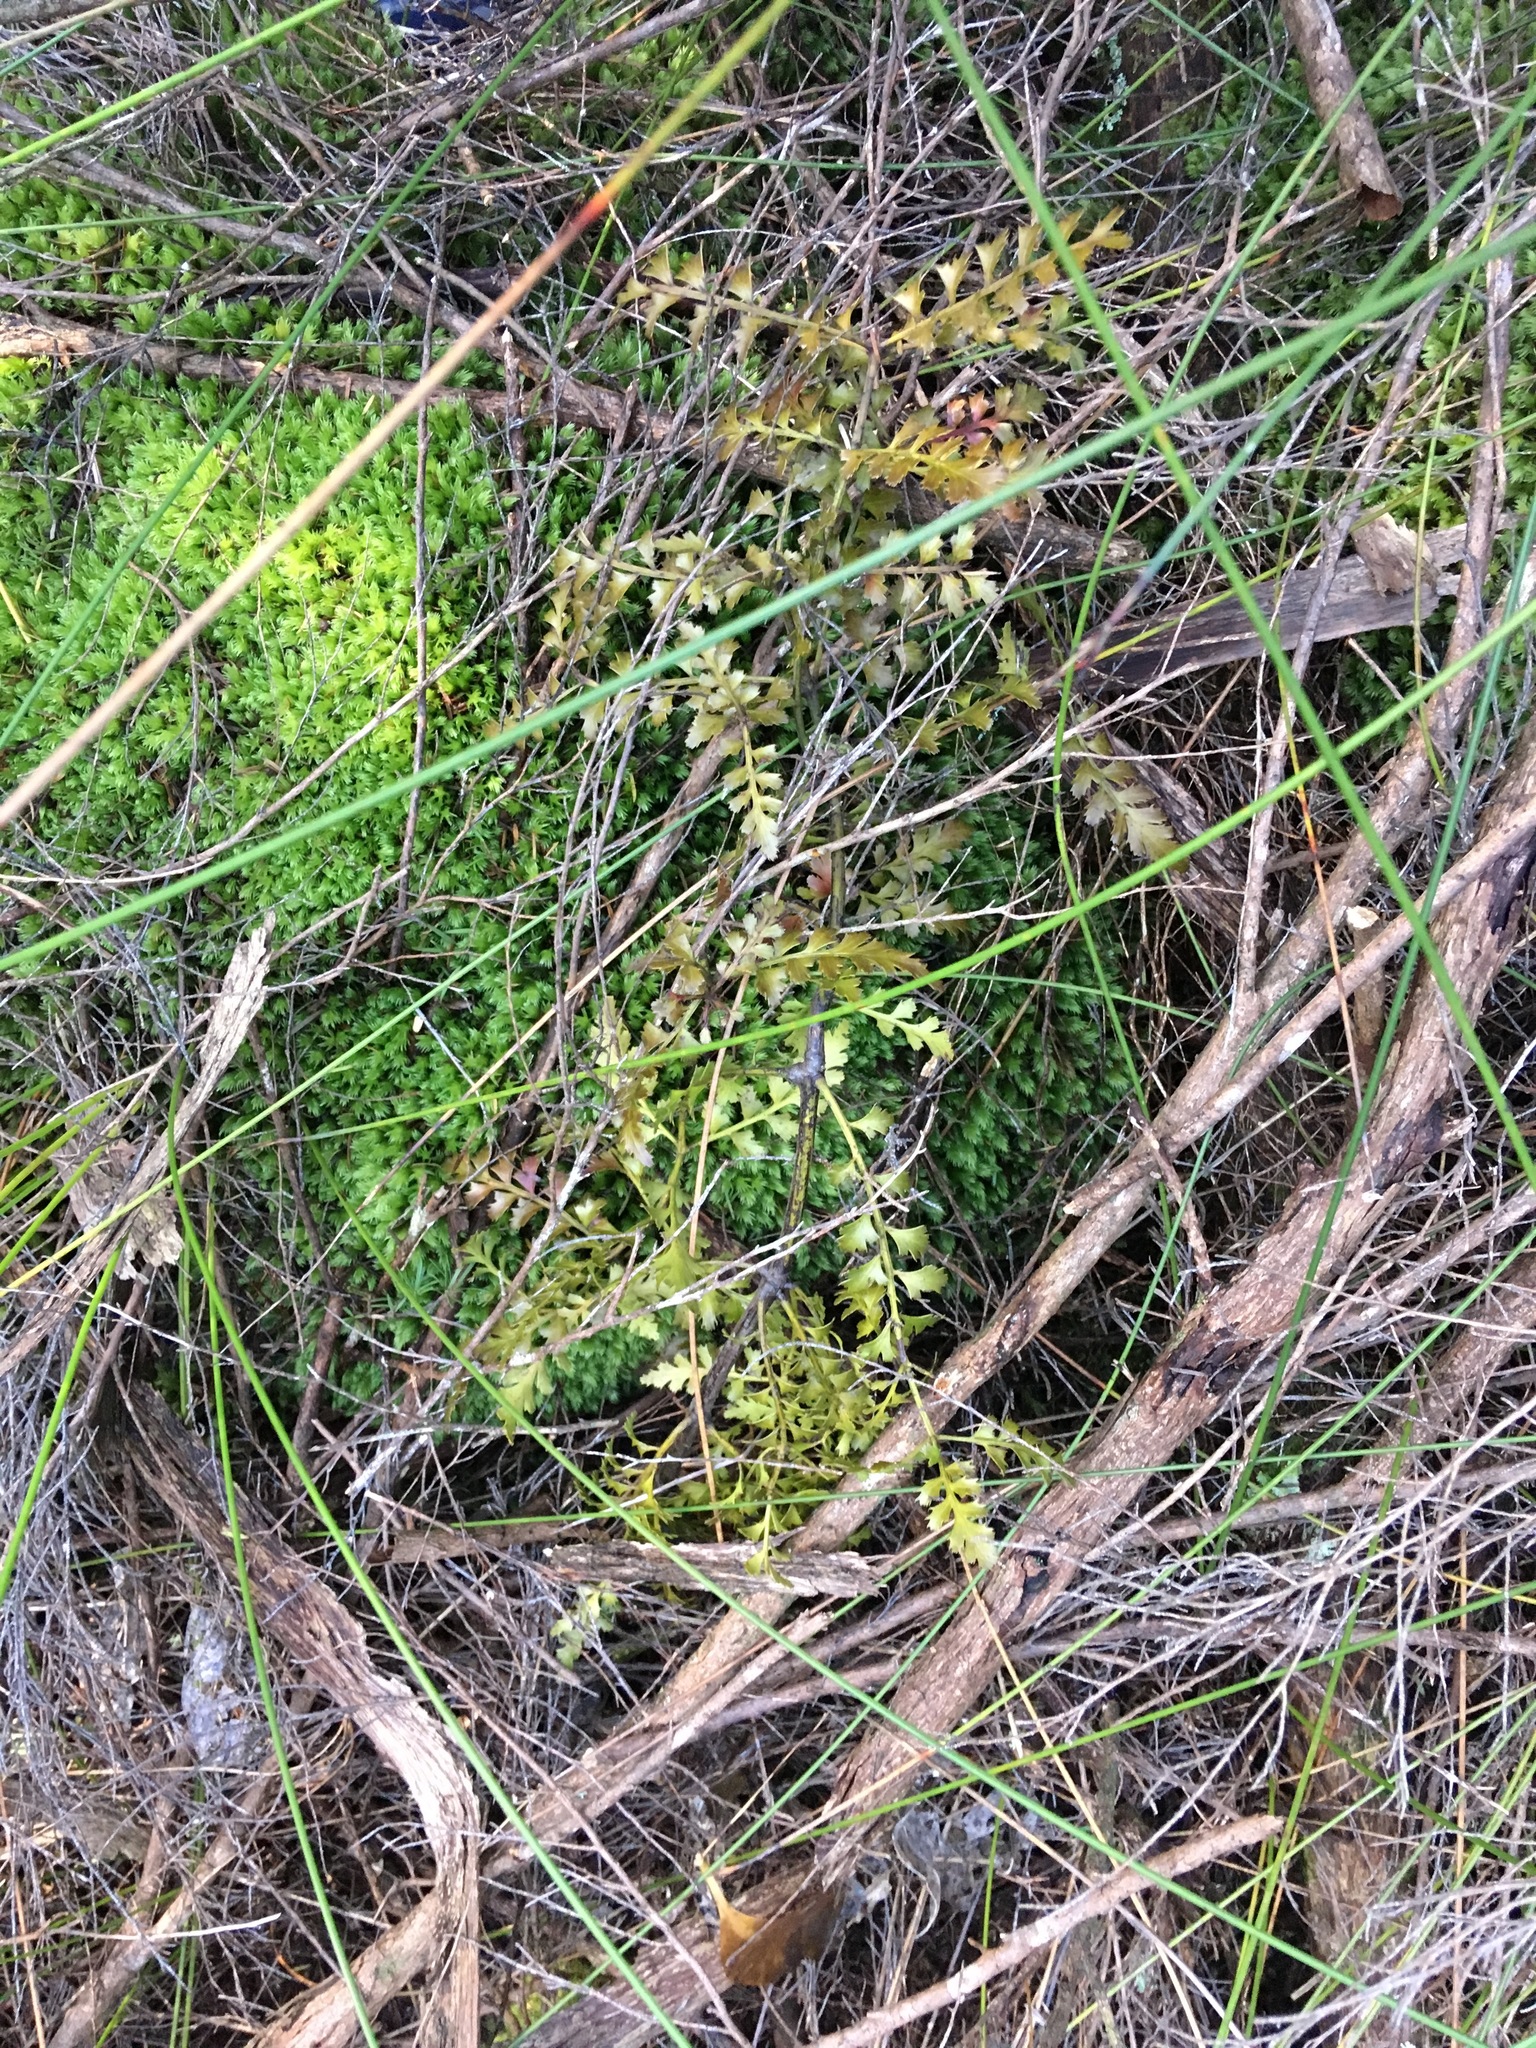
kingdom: Plantae
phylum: Tracheophyta
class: Pinopsida
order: Pinales
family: Phyllocladaceae
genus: Phyllocladus
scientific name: Phyllocladus trichomanoides
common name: Celery pine
